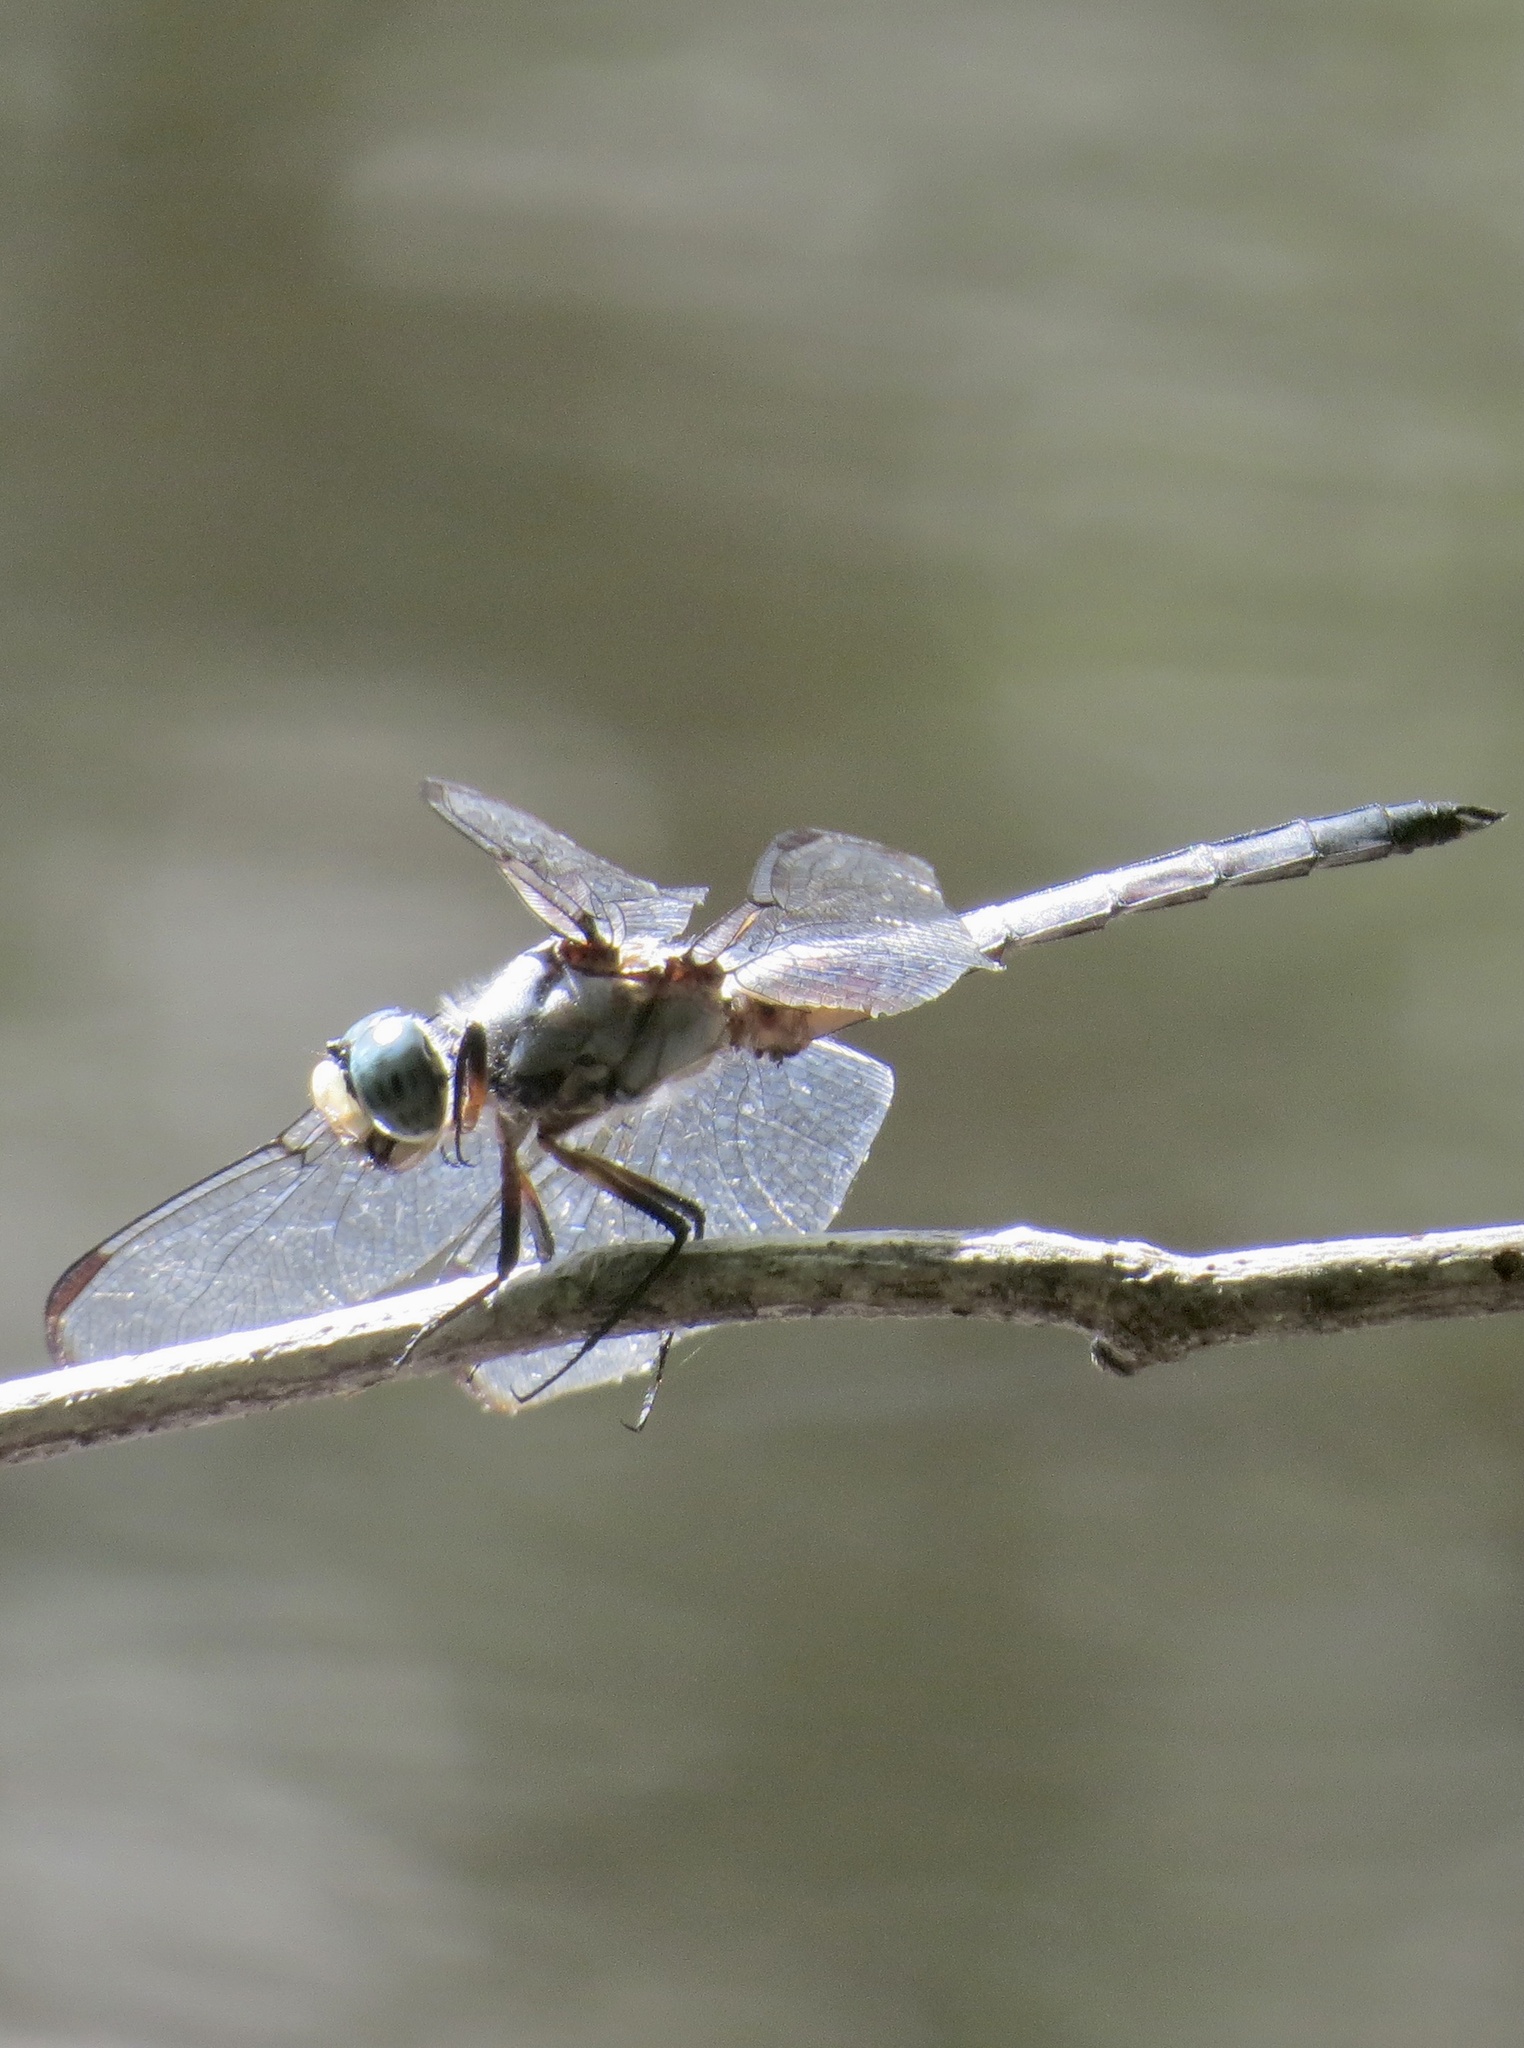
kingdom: Animalia
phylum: Arthropoda
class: Insecta
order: Odonata
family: Libellulidae
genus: Libellula
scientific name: Libellula vibrans
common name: Great blue skimmer
